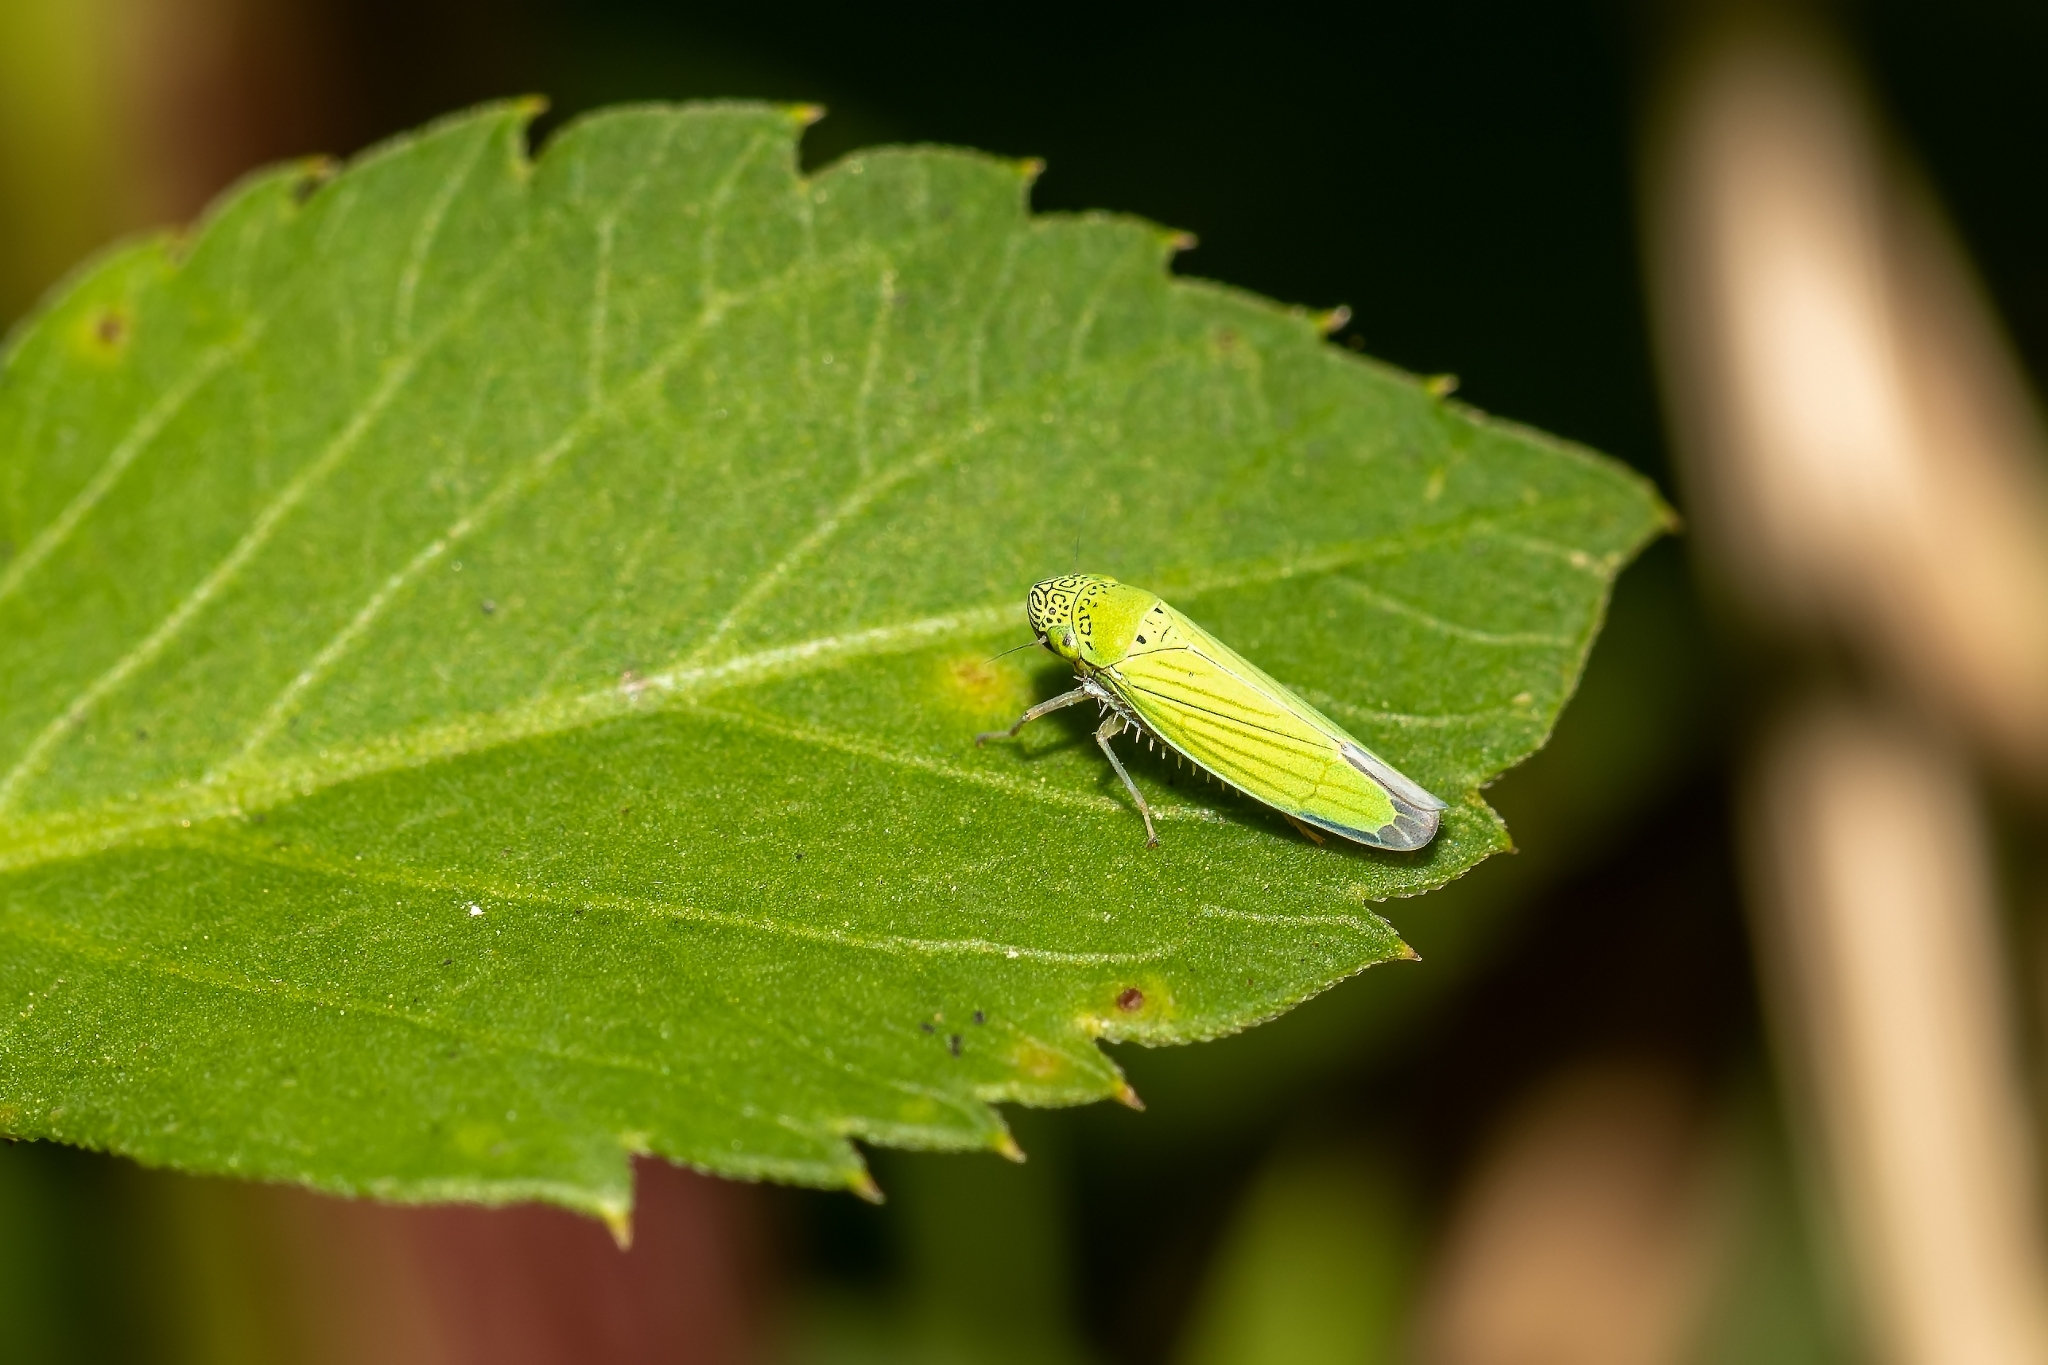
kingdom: Animalia
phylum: Arthropoda
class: Insecta
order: Hemiptera
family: Cicadellidae
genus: Hortensia
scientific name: Hortensia similis
